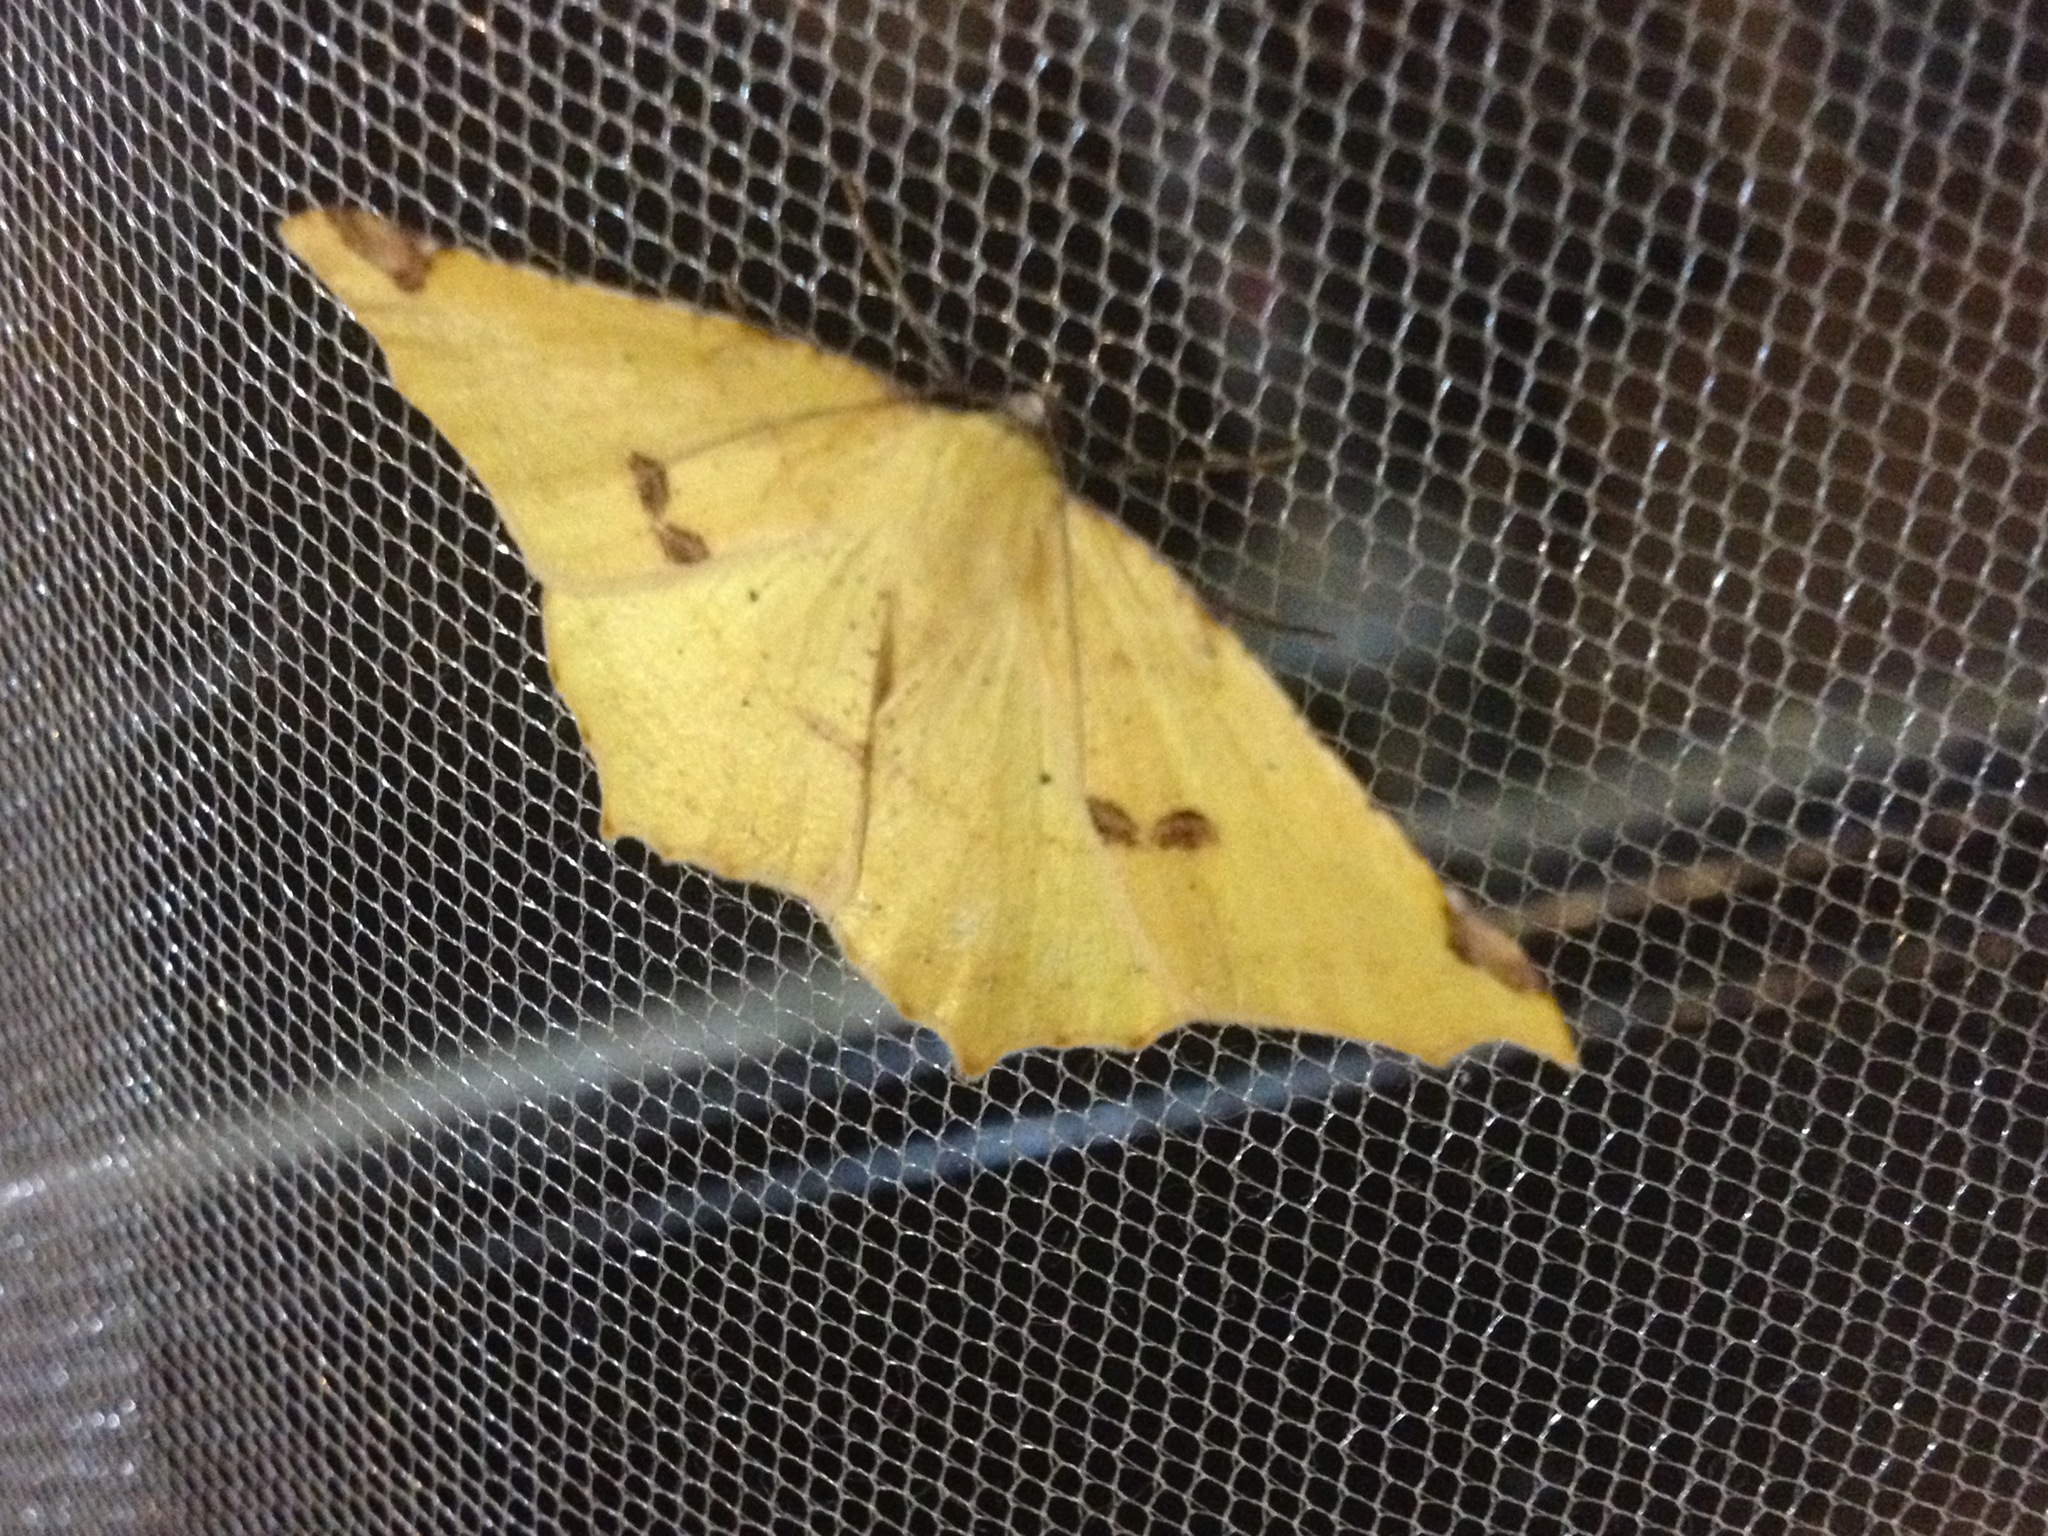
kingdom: Animalia
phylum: Arthropoda
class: Insecta
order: Lepidoptera
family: Geometridae
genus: Antepione
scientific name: Antepione thisoaria
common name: Variable antipione
